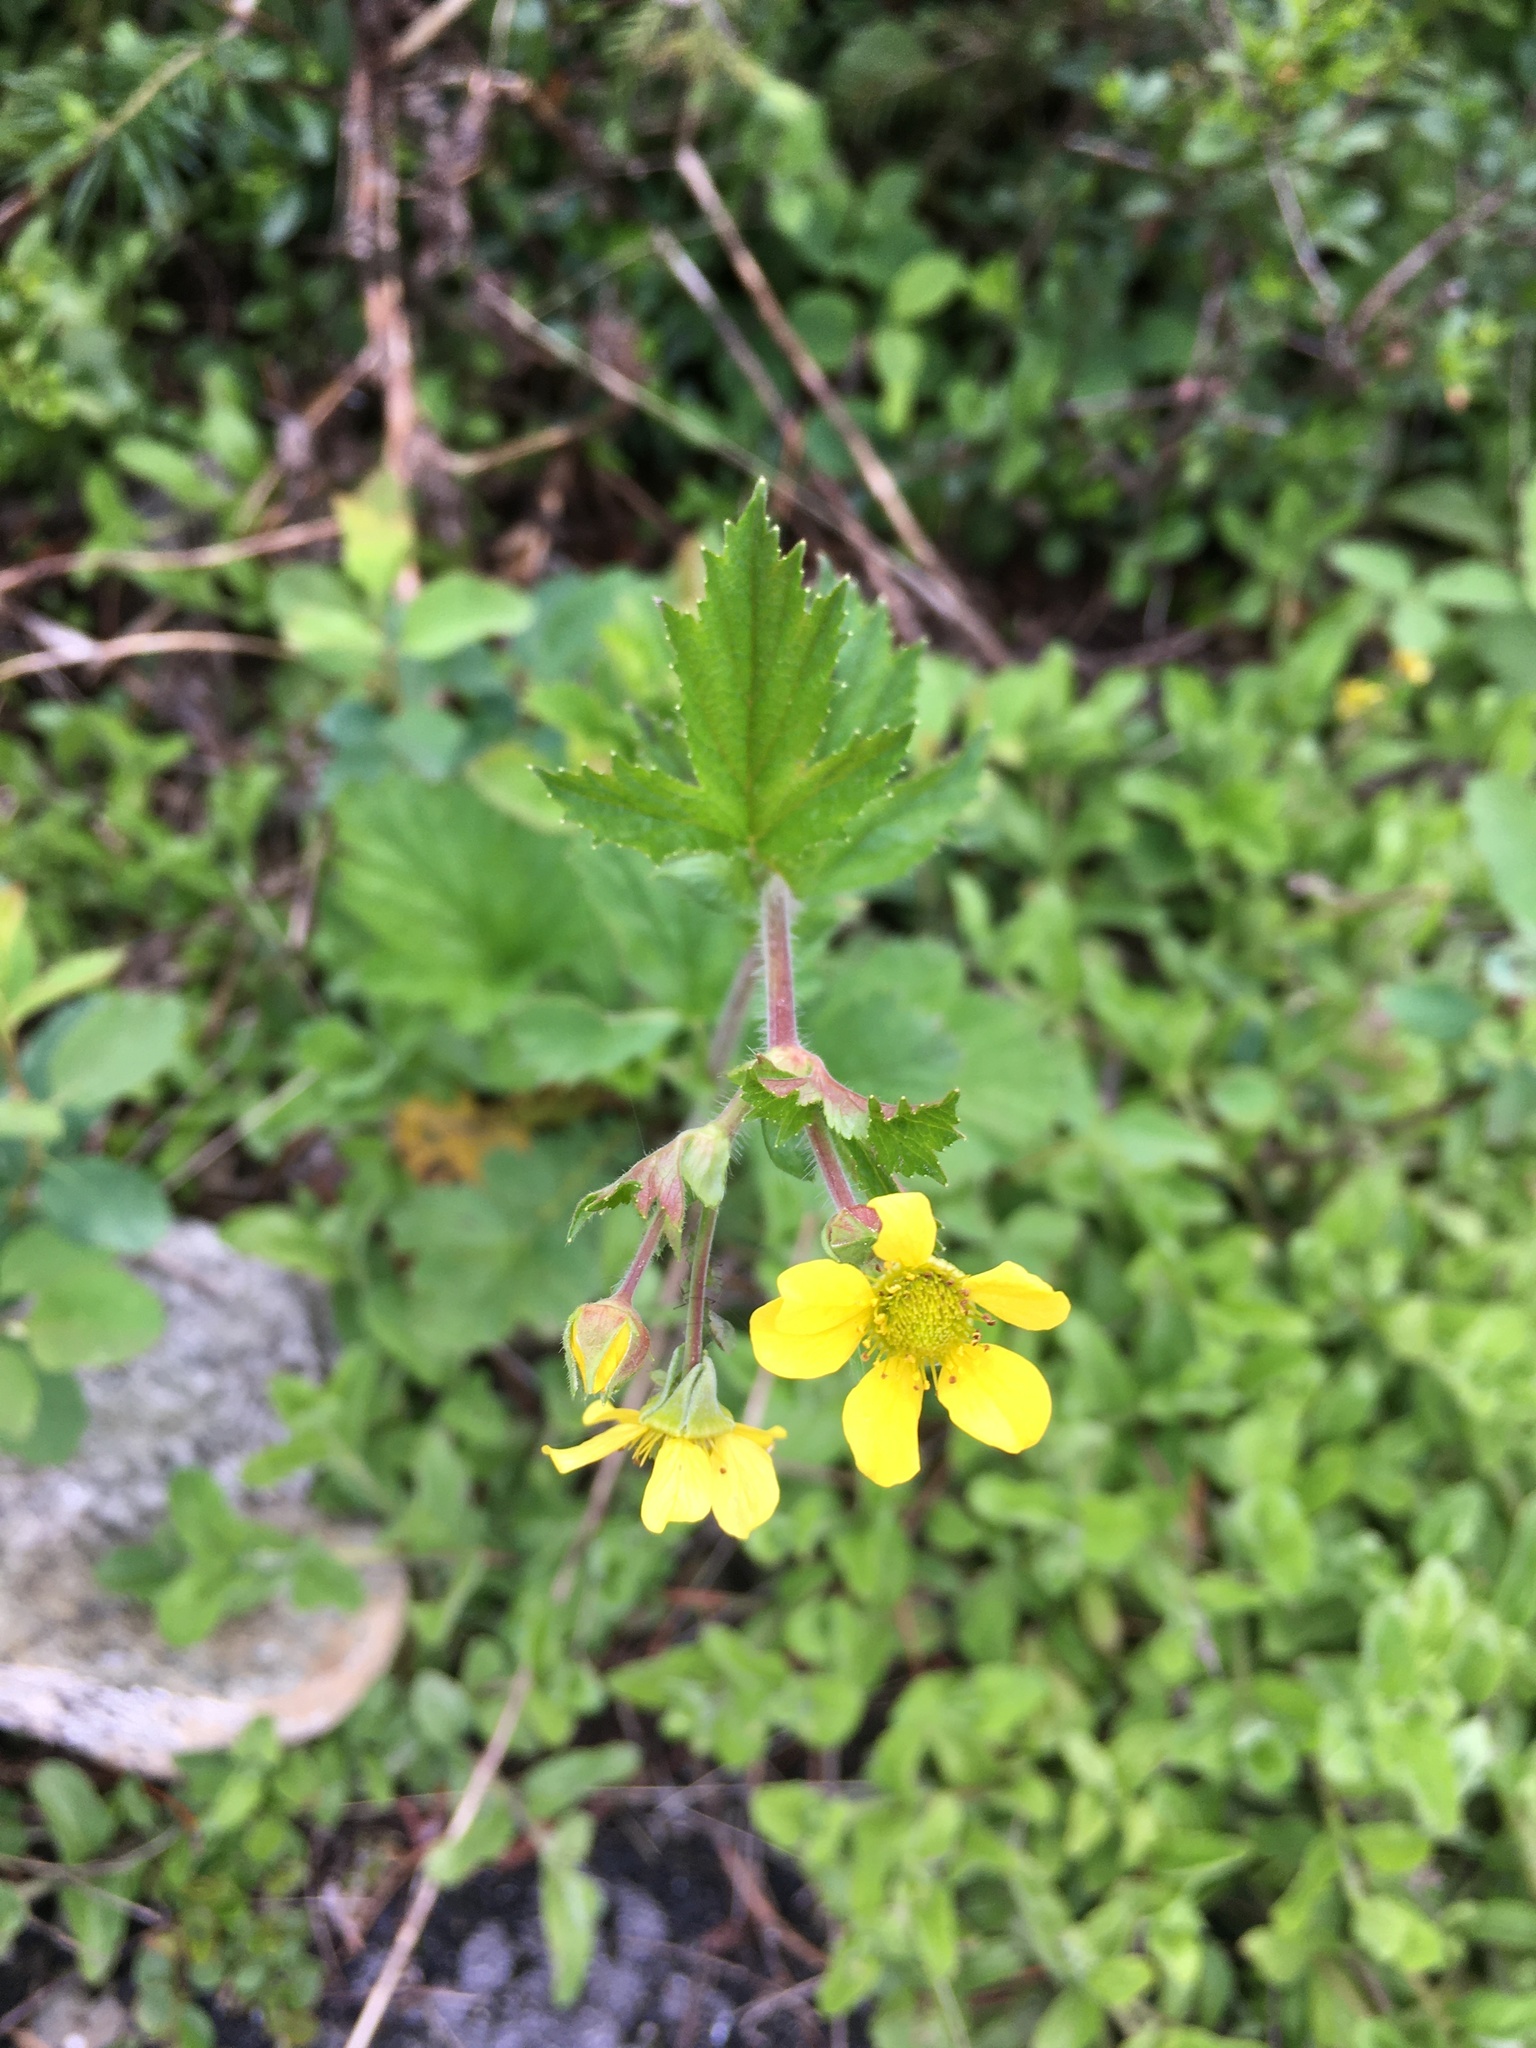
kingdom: Plantae
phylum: Tracheophyta
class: Magnoliopsida
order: Rosales
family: Rosaceae
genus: Geum
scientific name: Geum aleppicum
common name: Yellow avens
